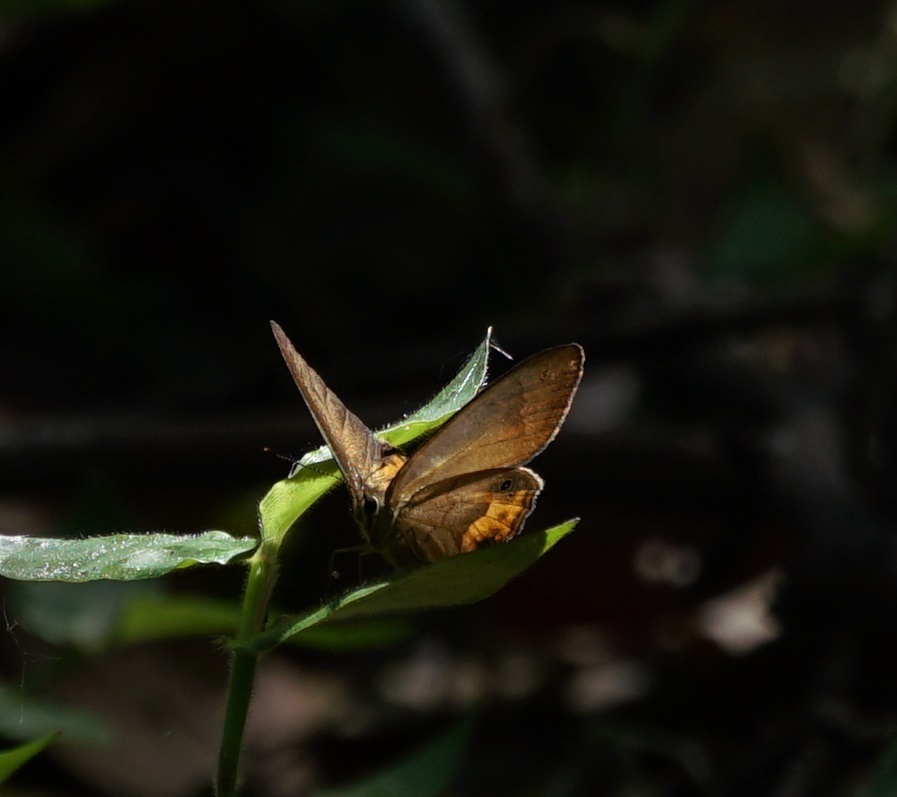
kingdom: Animalia
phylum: Arthropoda
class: Insecta
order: Lepidoptera
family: Nymphalidae
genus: Hypocysta
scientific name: Hypocysta metirius
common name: Brown ringlet
